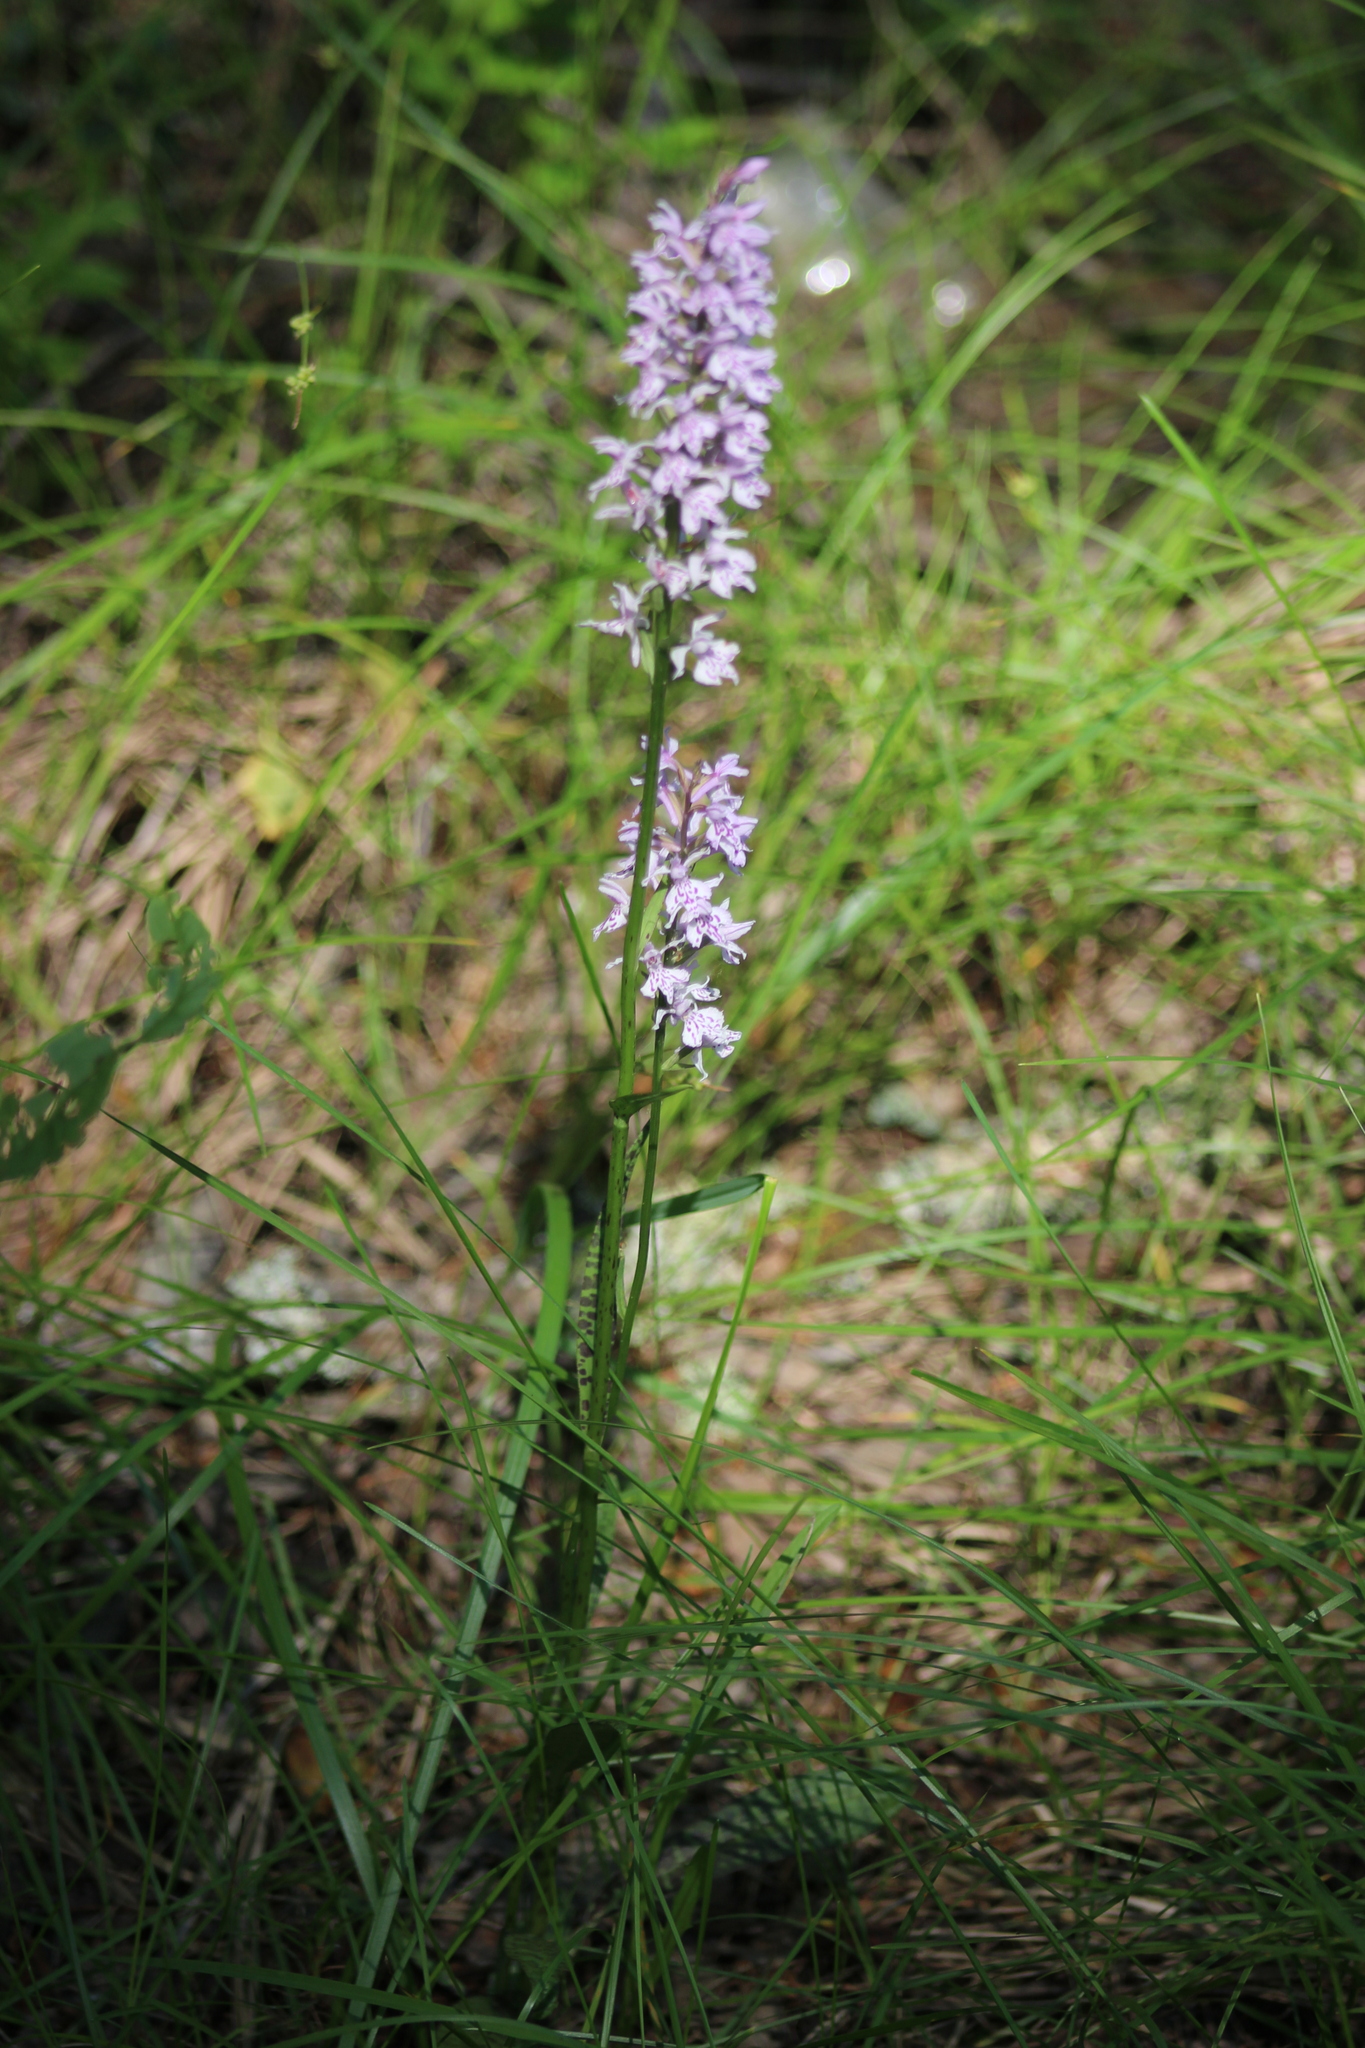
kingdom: Plantae
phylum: Tracheophyta
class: Liliopsida
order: Asparagales
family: Orchidaceae
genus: Dactylorhiza
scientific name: Dactylorhiza maculata
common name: Heath spotted-orchid
